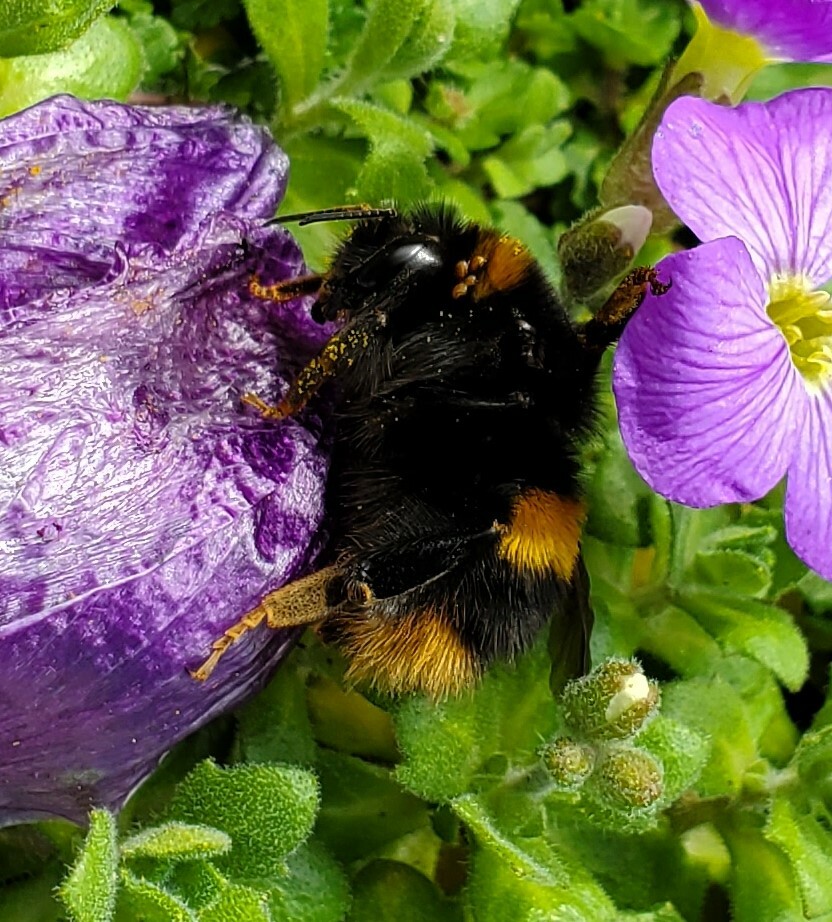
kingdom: Animalia
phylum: Arthropoda
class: Insecta
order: Hymenoptera
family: Apidae
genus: Bombus
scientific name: Bombus terrestris
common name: Buff-tailed bumblebee
